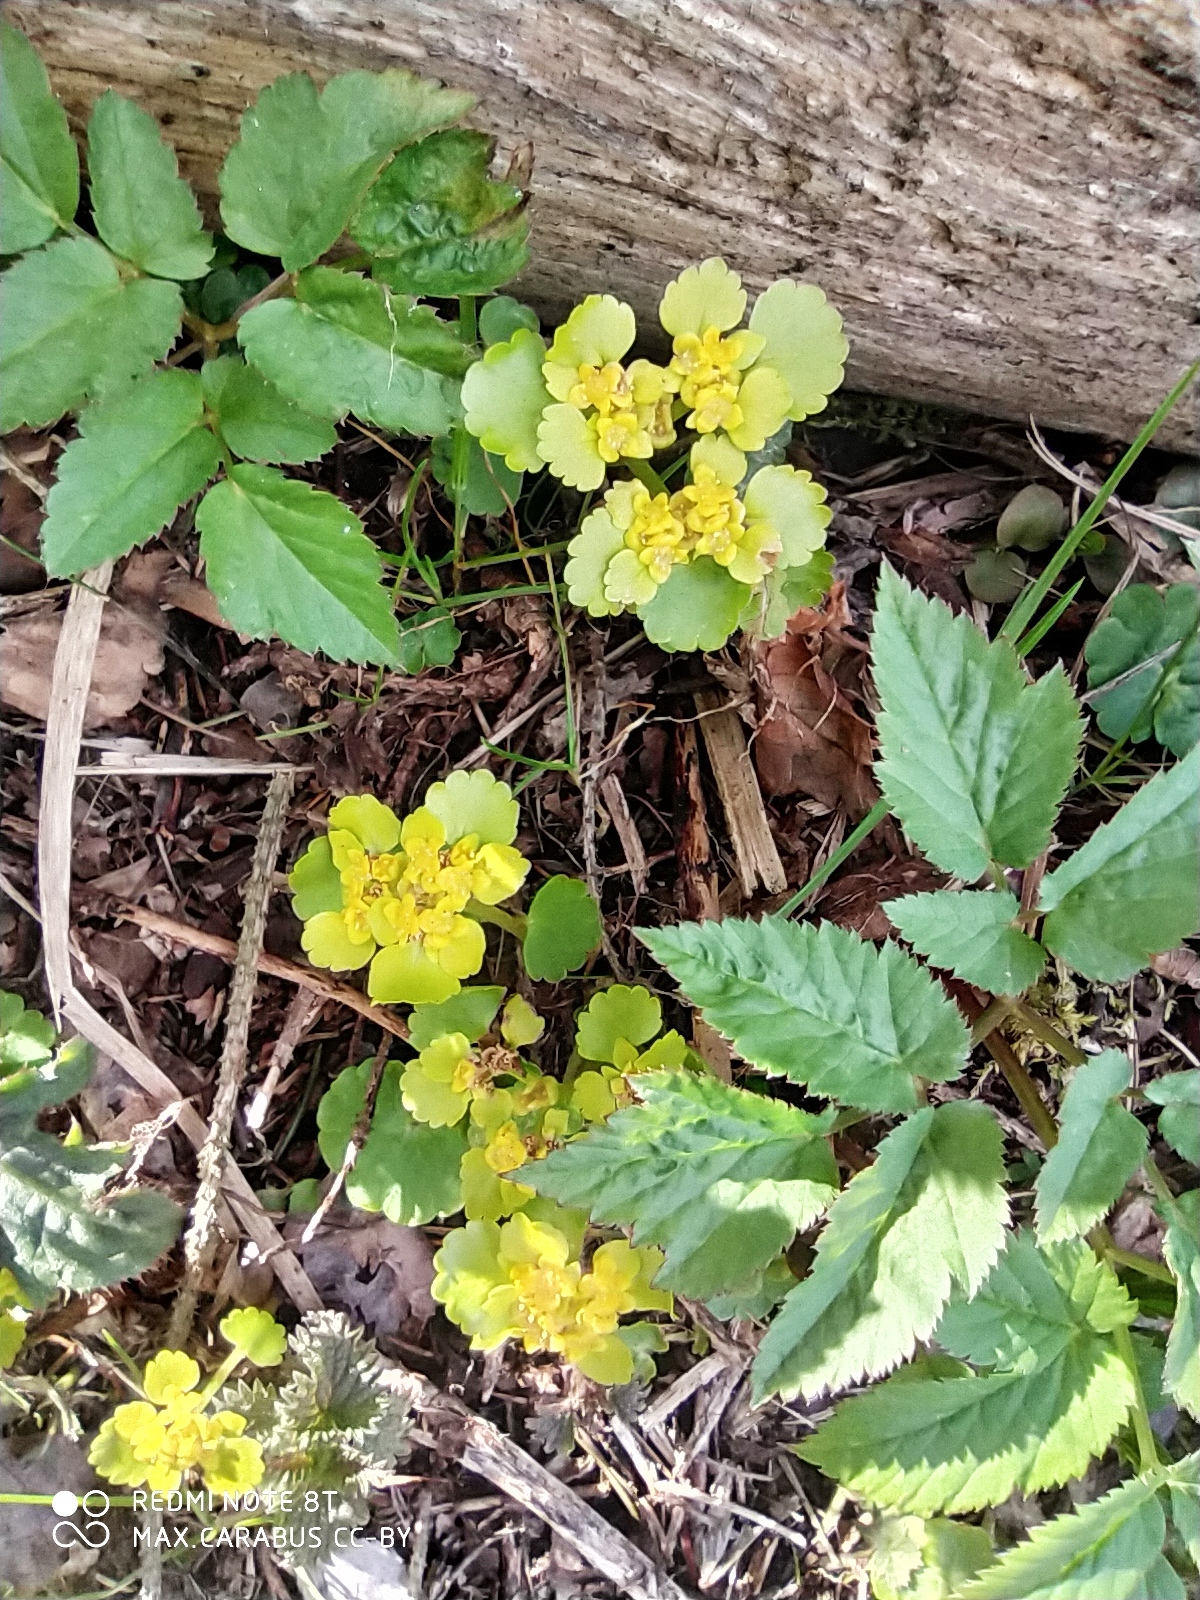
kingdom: Plantae
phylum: Tracheophyta
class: Magnoliopsida
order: Saxifragales
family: Saxifragaceae
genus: Chrysosplenium
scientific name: Chrysosplenium alternifolium
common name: Alternate-leaved golden-saxifrage
